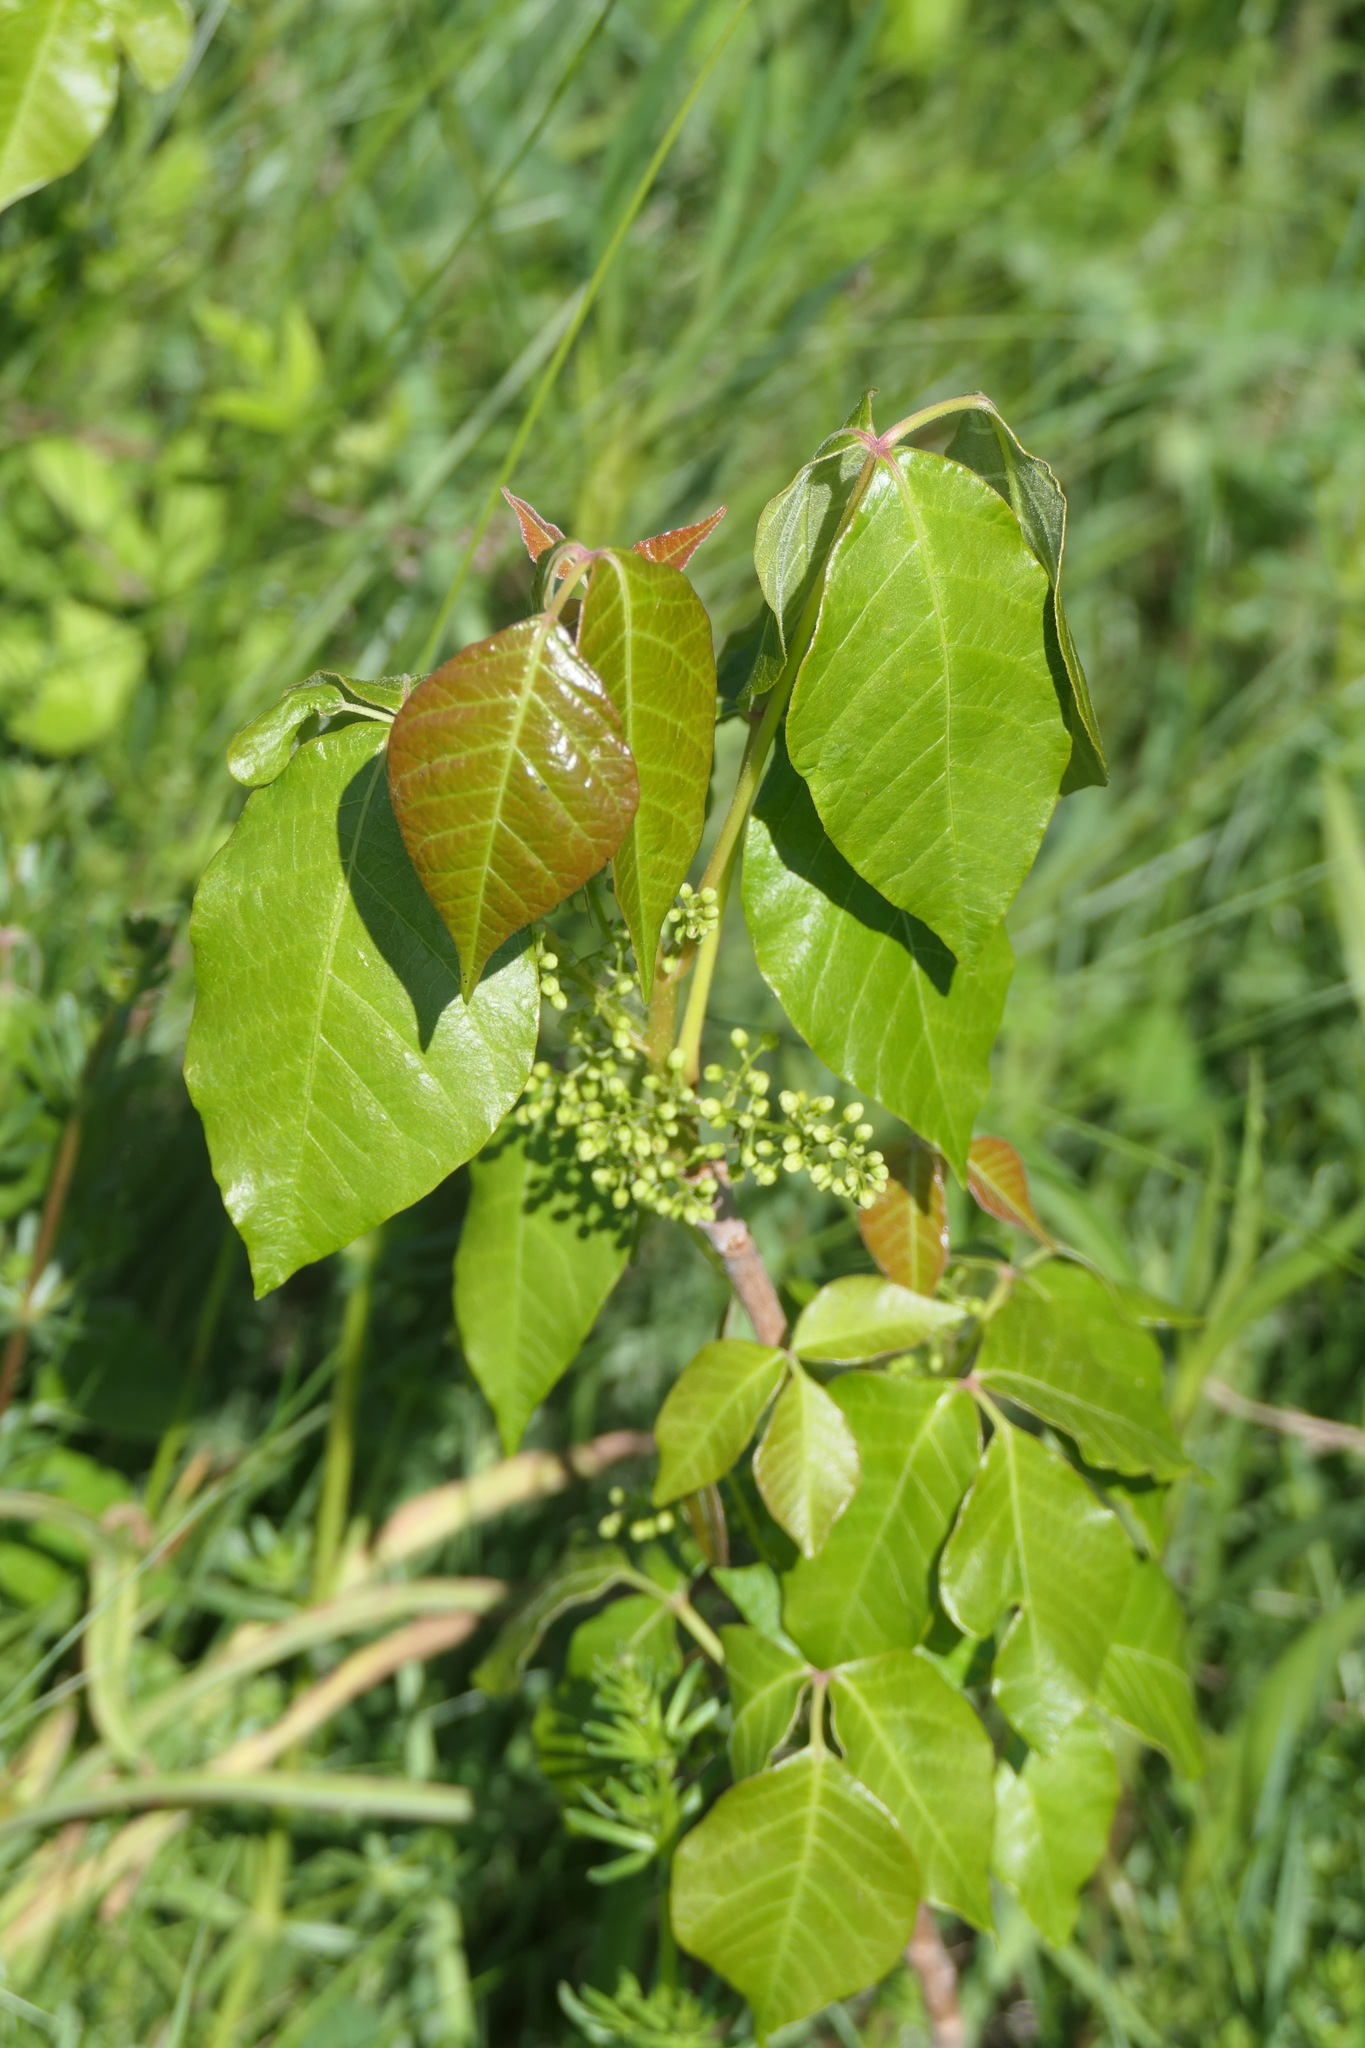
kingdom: Plantae
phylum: Tracheophyta
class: Magnoliopsida
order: Sapindales
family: Anacardiaceae
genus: Toxicodendron
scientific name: Toxicodendron radicans
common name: Poison ivy
